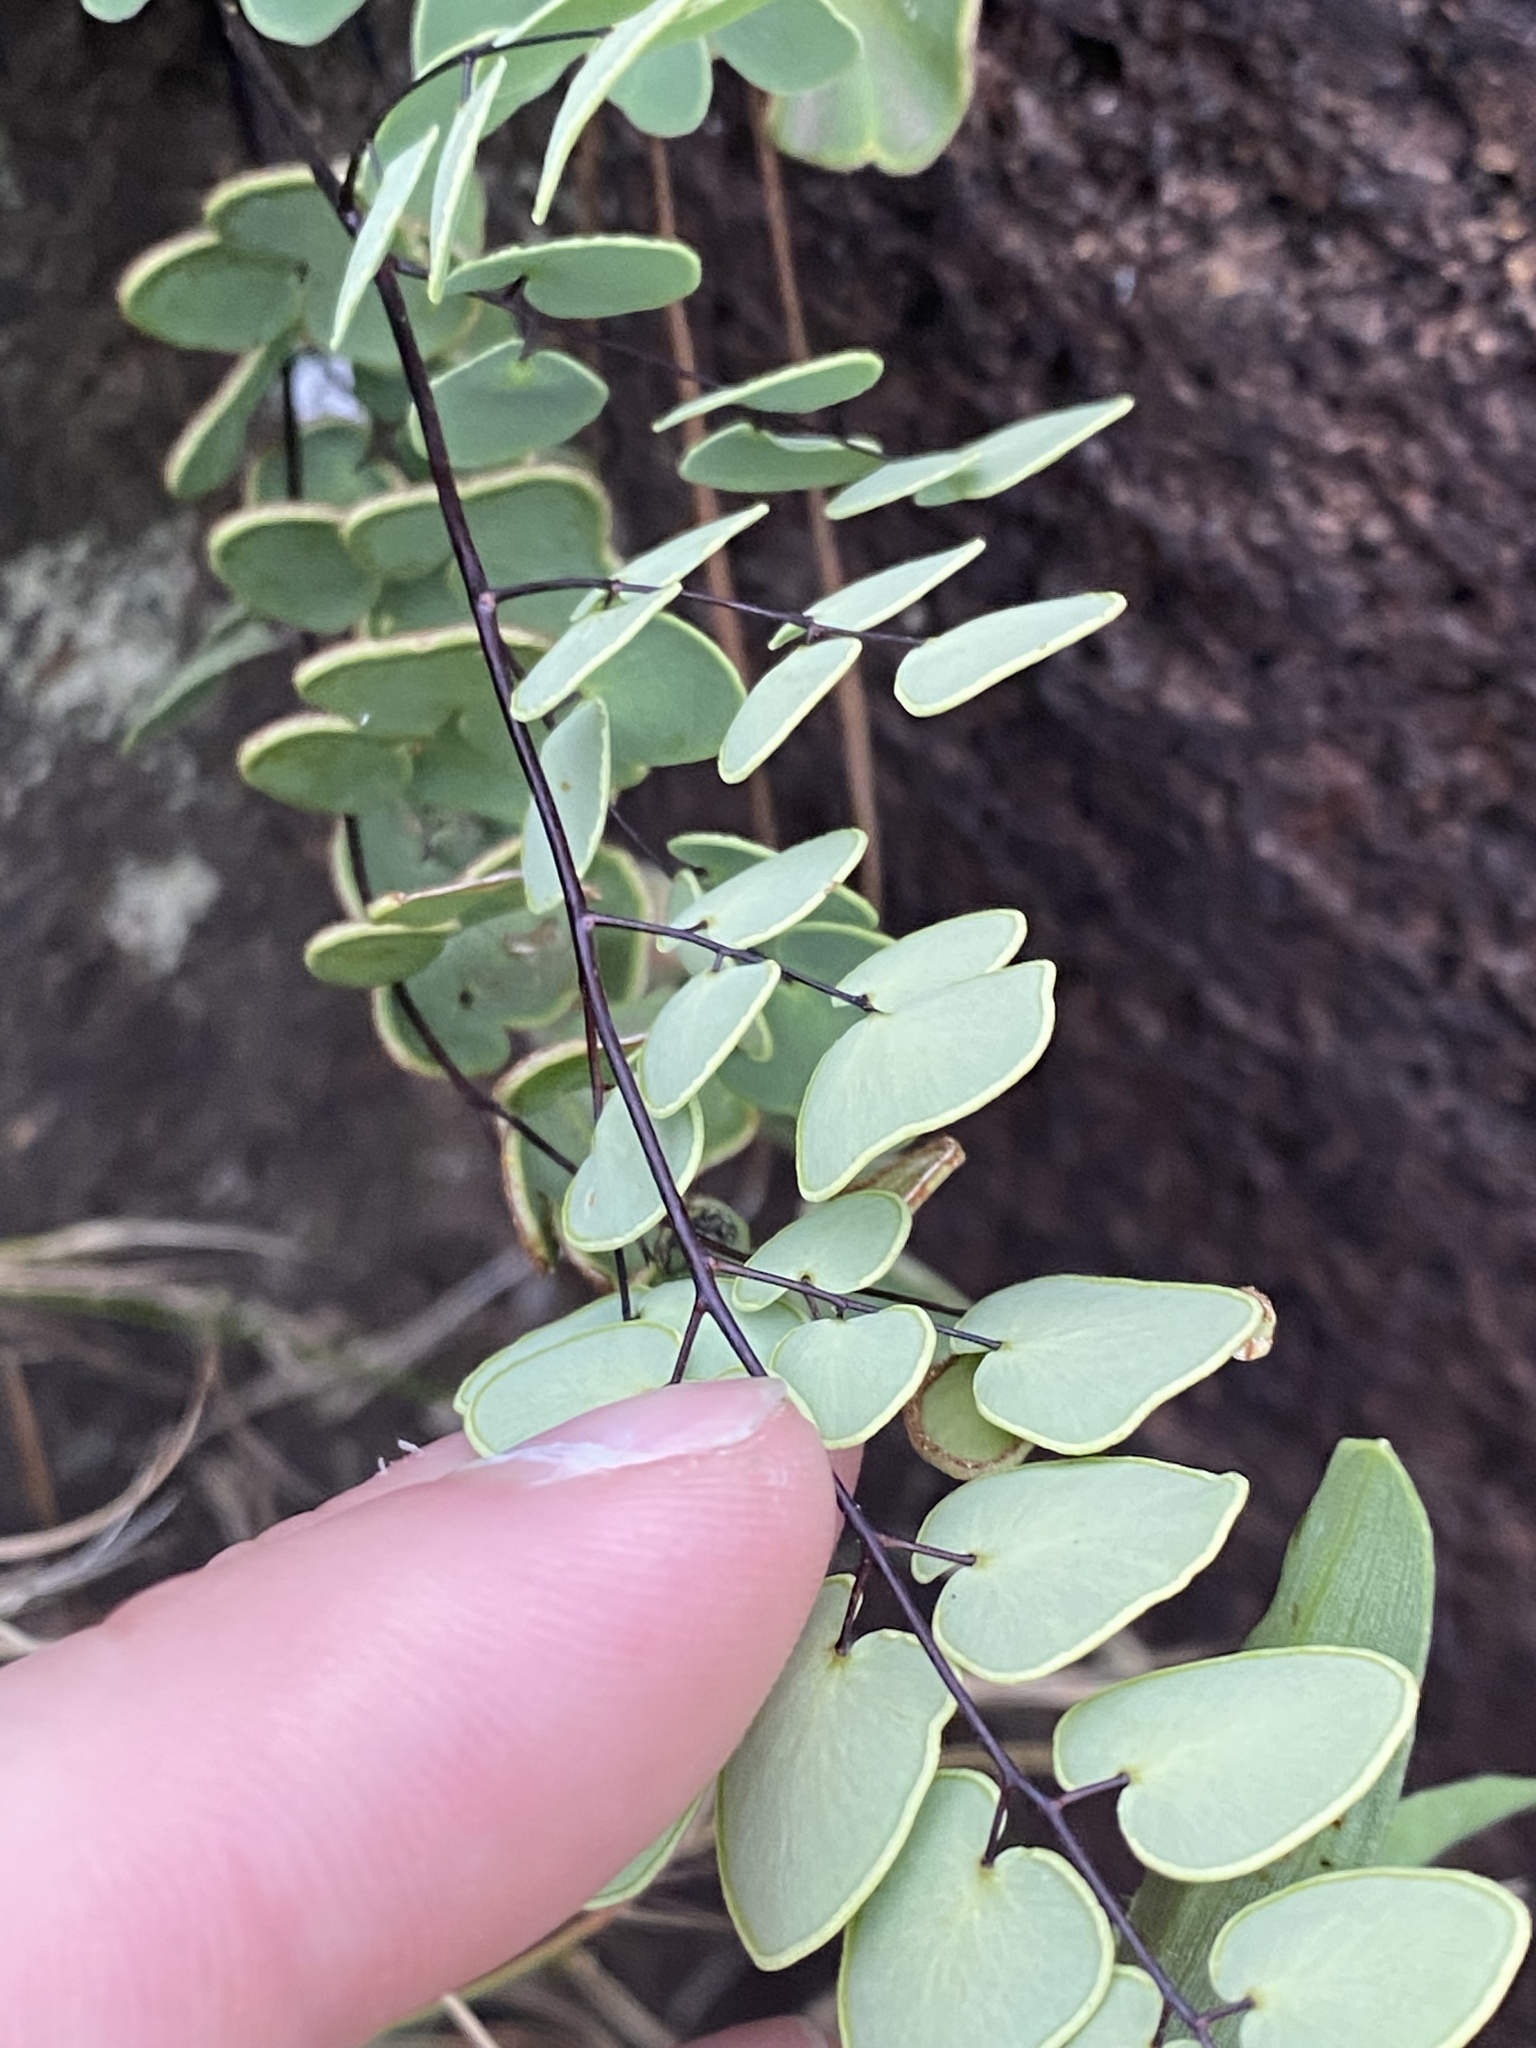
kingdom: Plantae
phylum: Tracheophyta
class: Polypodiopsida
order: Polypodiales
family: Pteridaceae
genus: Pellaea
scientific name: Pellaea calomelanos
